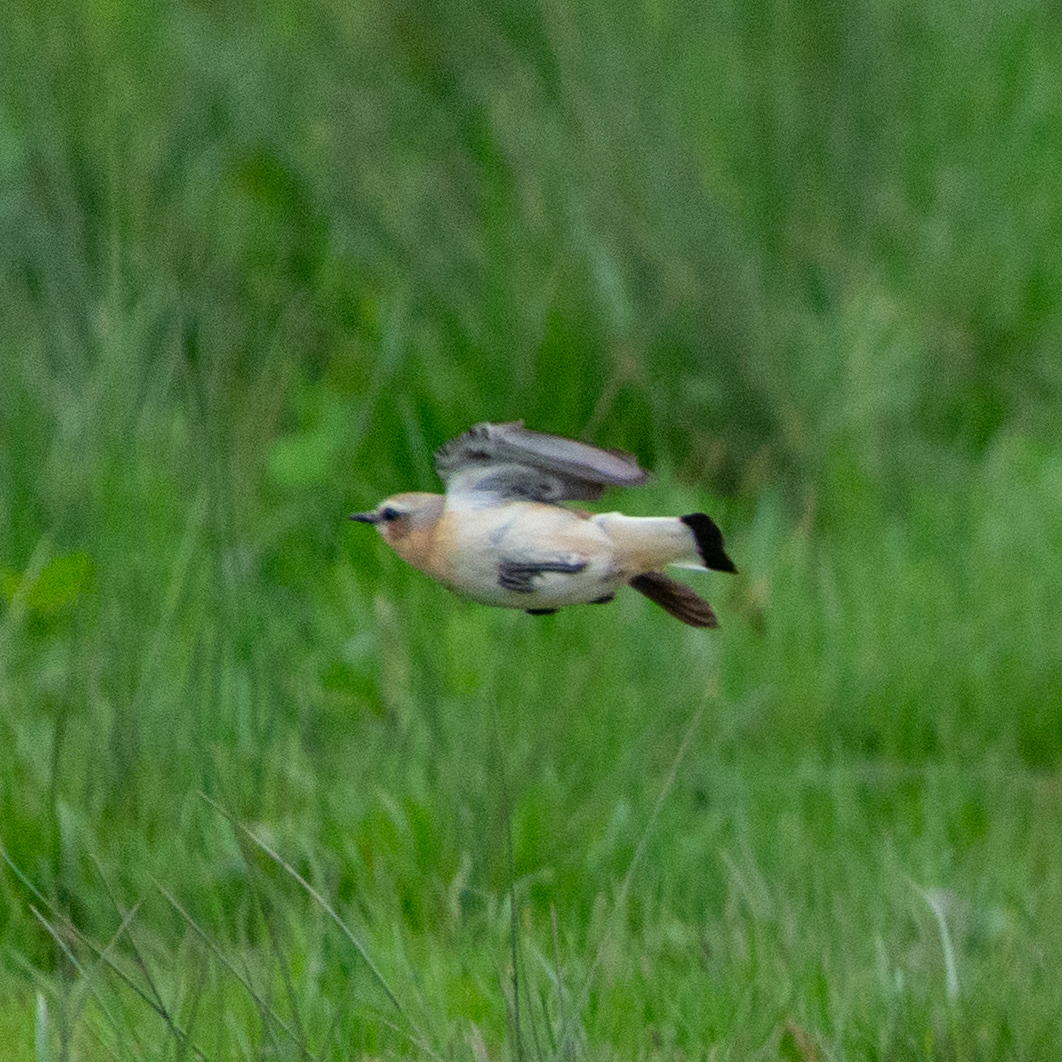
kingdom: Animalia
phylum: Chordata
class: Aves
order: Passeriformes
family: Muscicapidae
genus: Oenanthe
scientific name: Oenanthe oenanthe
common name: Northern wheatear
